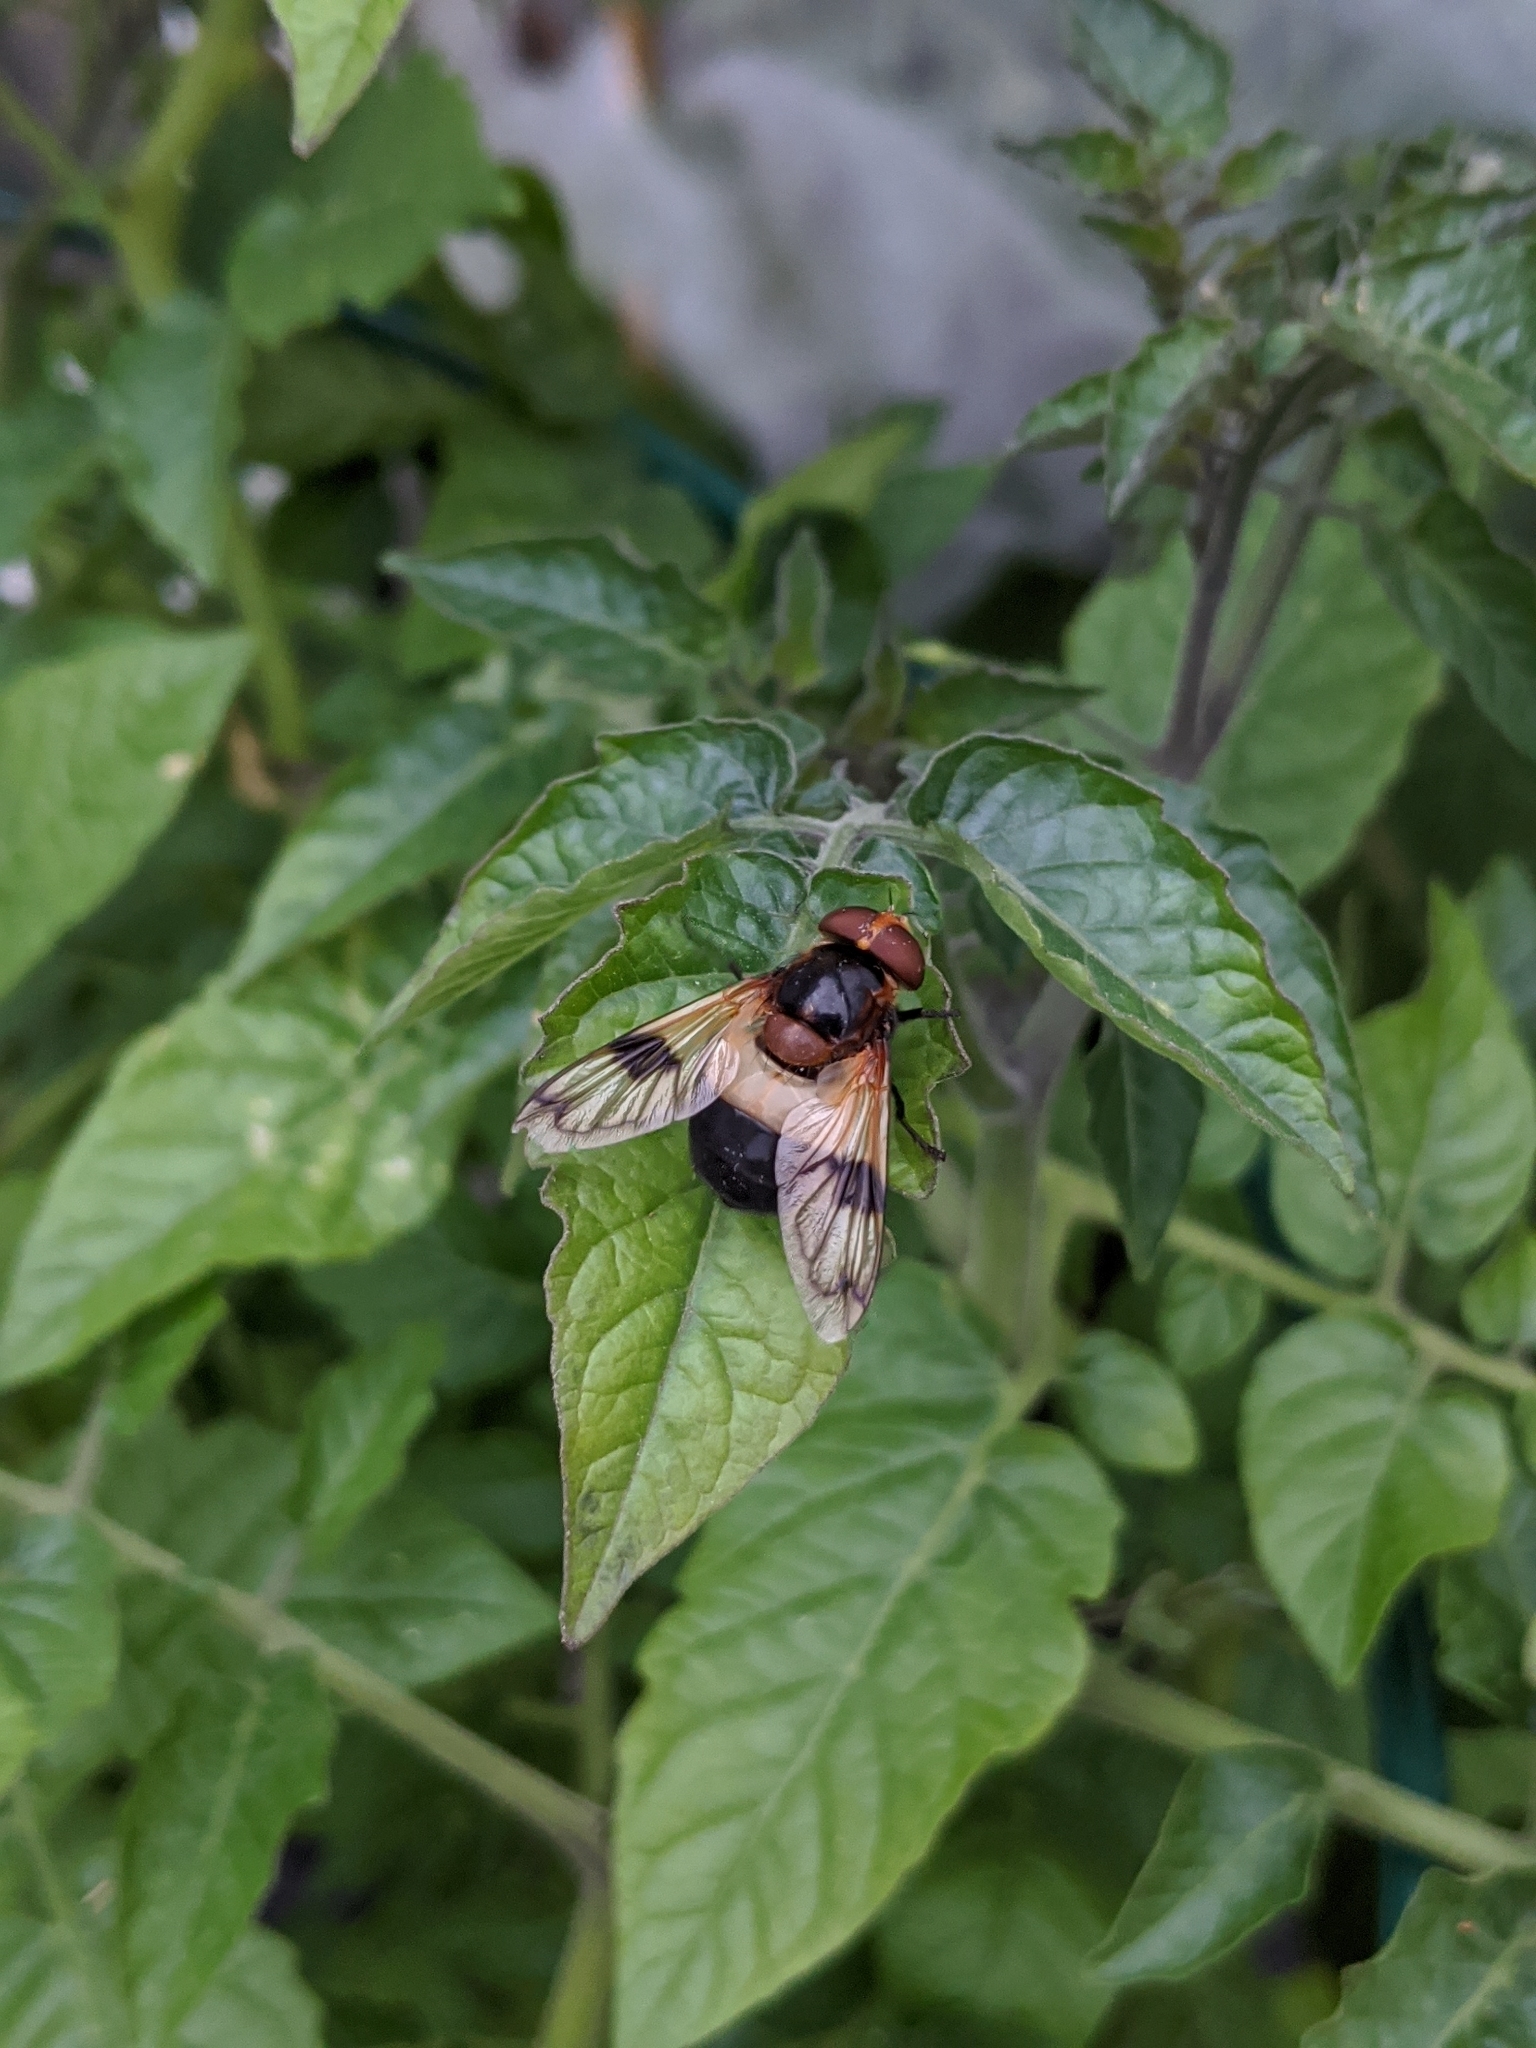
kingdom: Animalia
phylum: Arthropoda
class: Insecta
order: Diptera
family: Syrphidae
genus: Volucella
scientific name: Volucella pellucens
